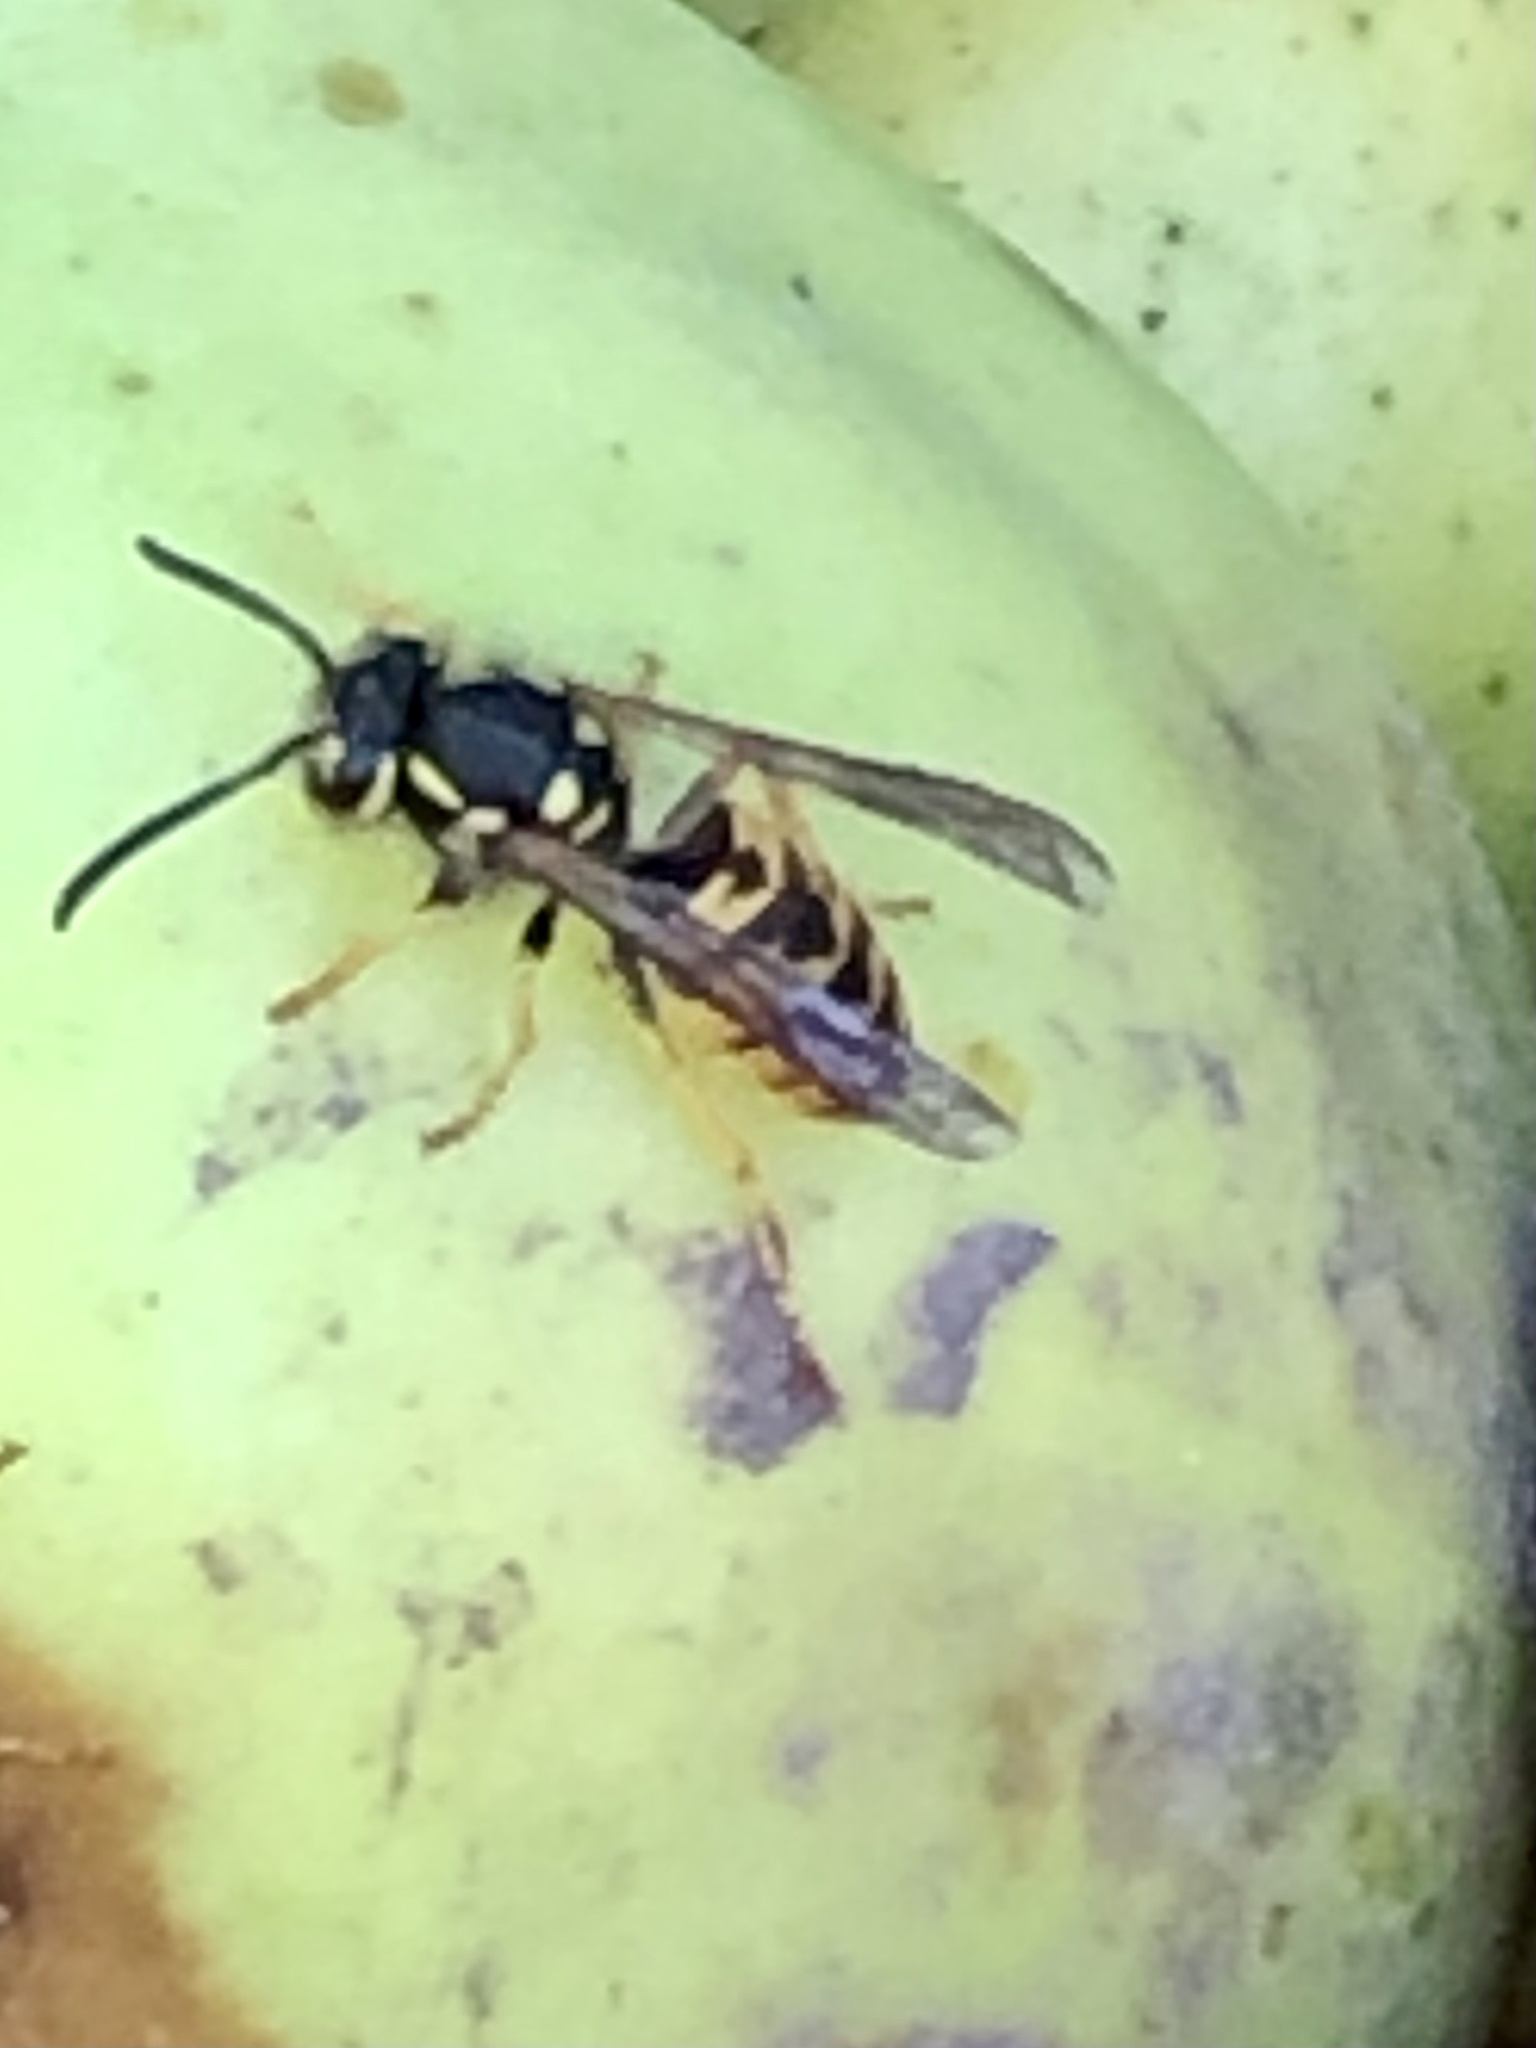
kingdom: Animalia
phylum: Arthropoda
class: Insecta
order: Hymenoptera
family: Vespidae
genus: Vespula
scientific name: Vespula germanica
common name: German wasp
